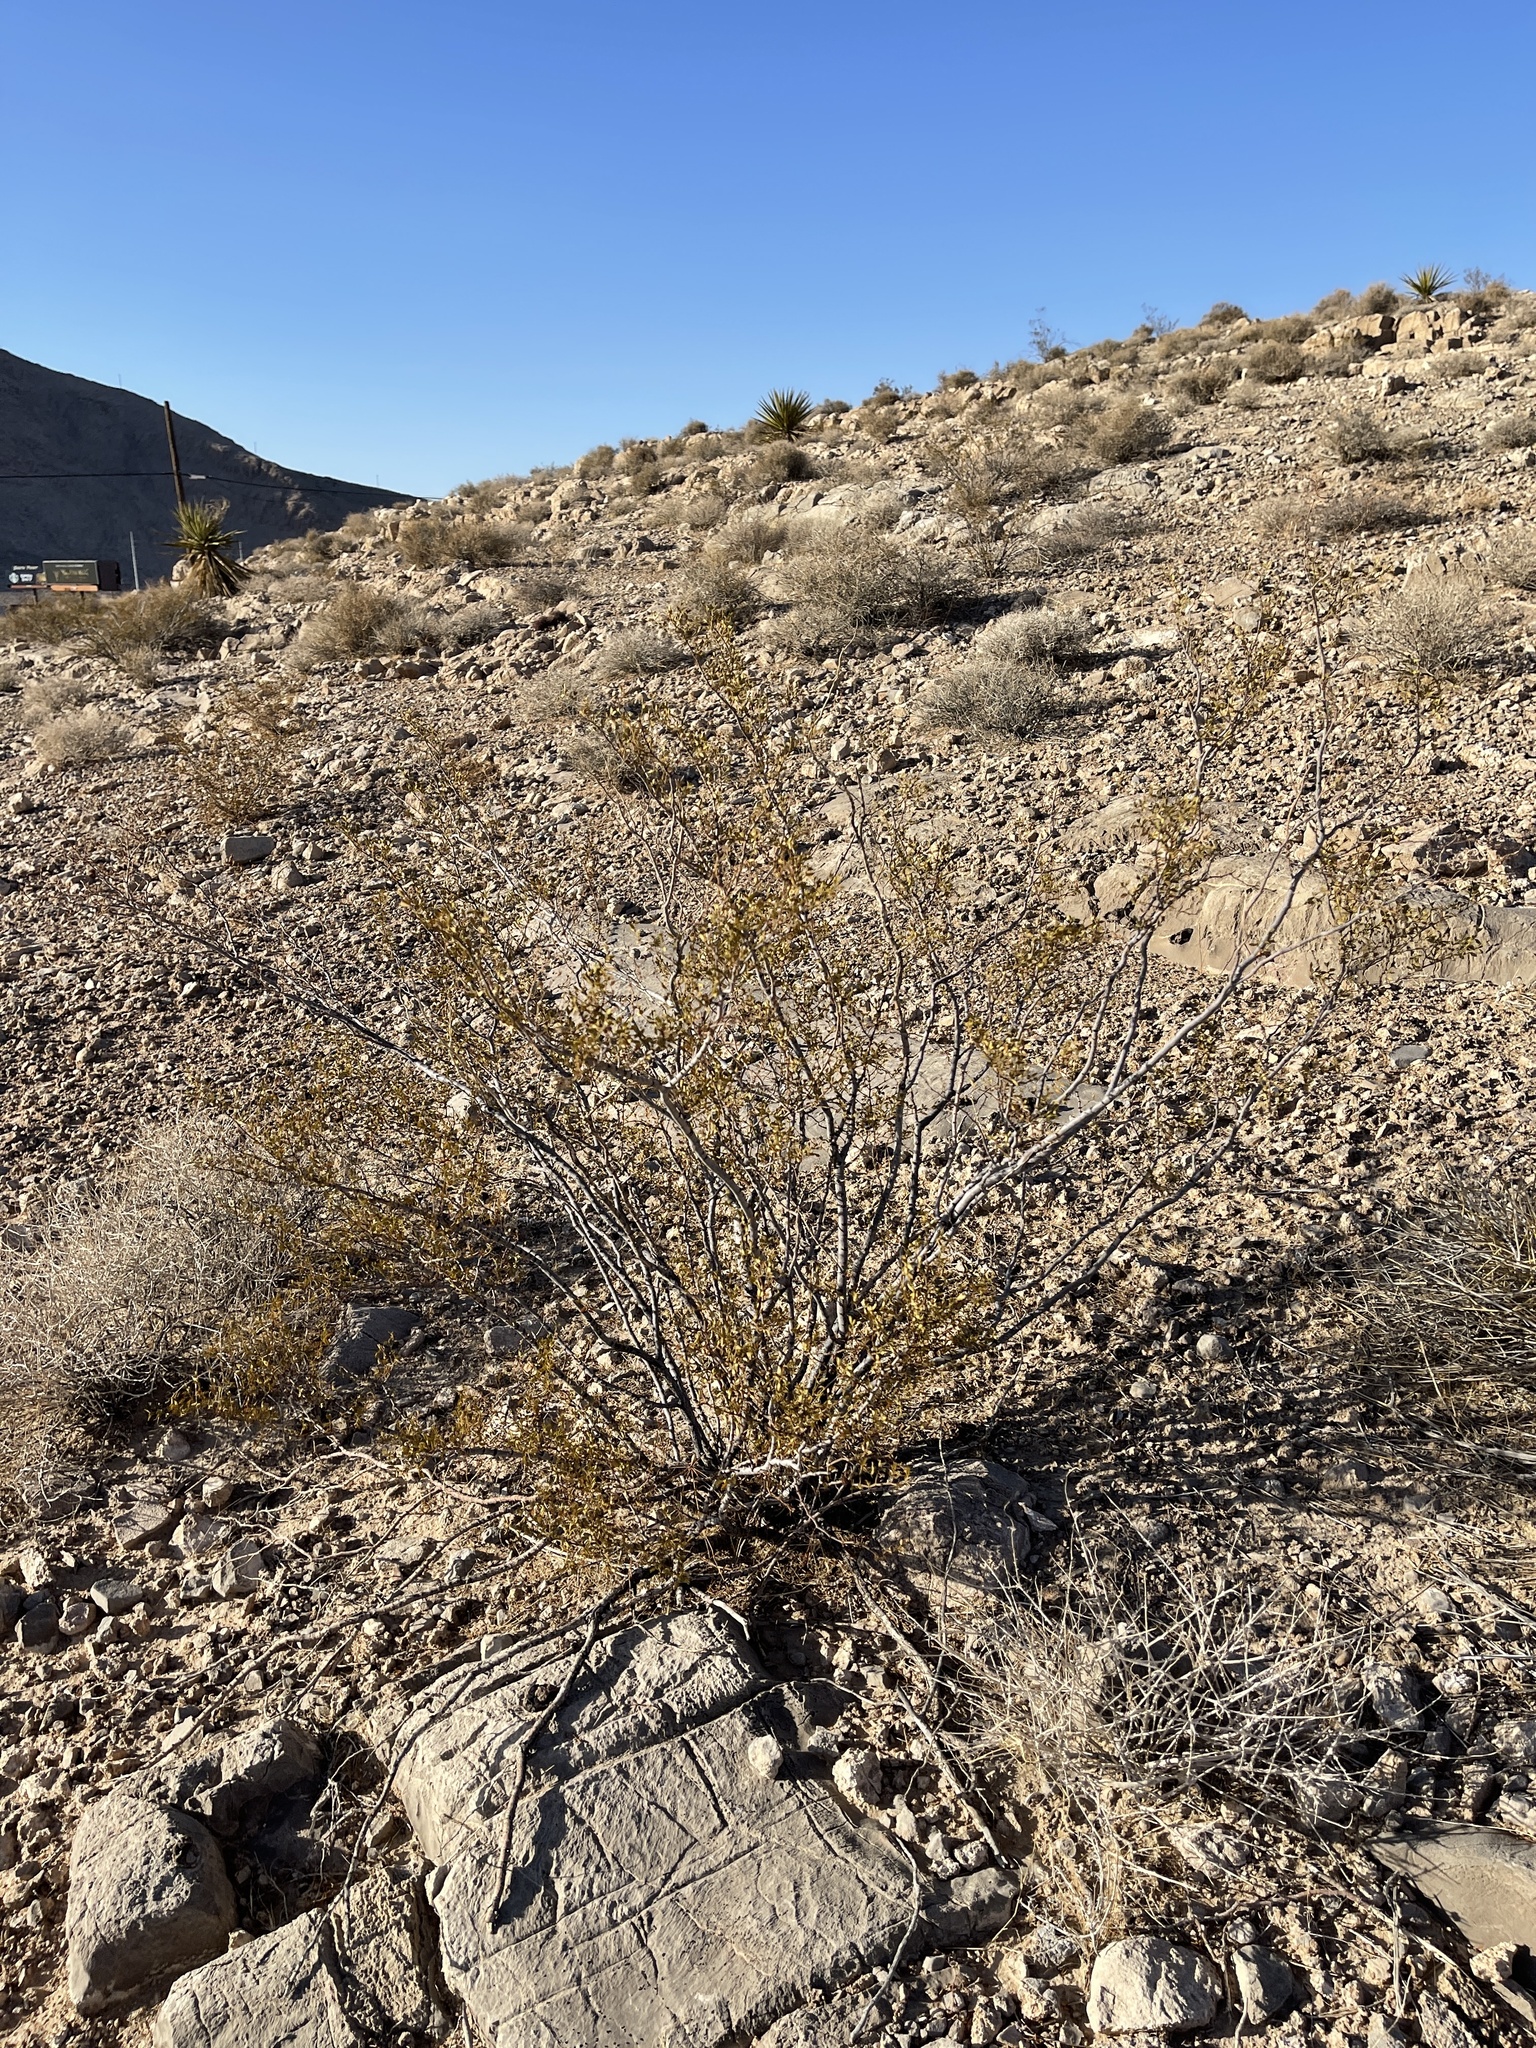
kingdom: Plantae
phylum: Tracheophyta
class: Magnoliopsida
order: Zygophyllales
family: Zygophyllaceae
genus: Larrea
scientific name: Larrea tridentata
